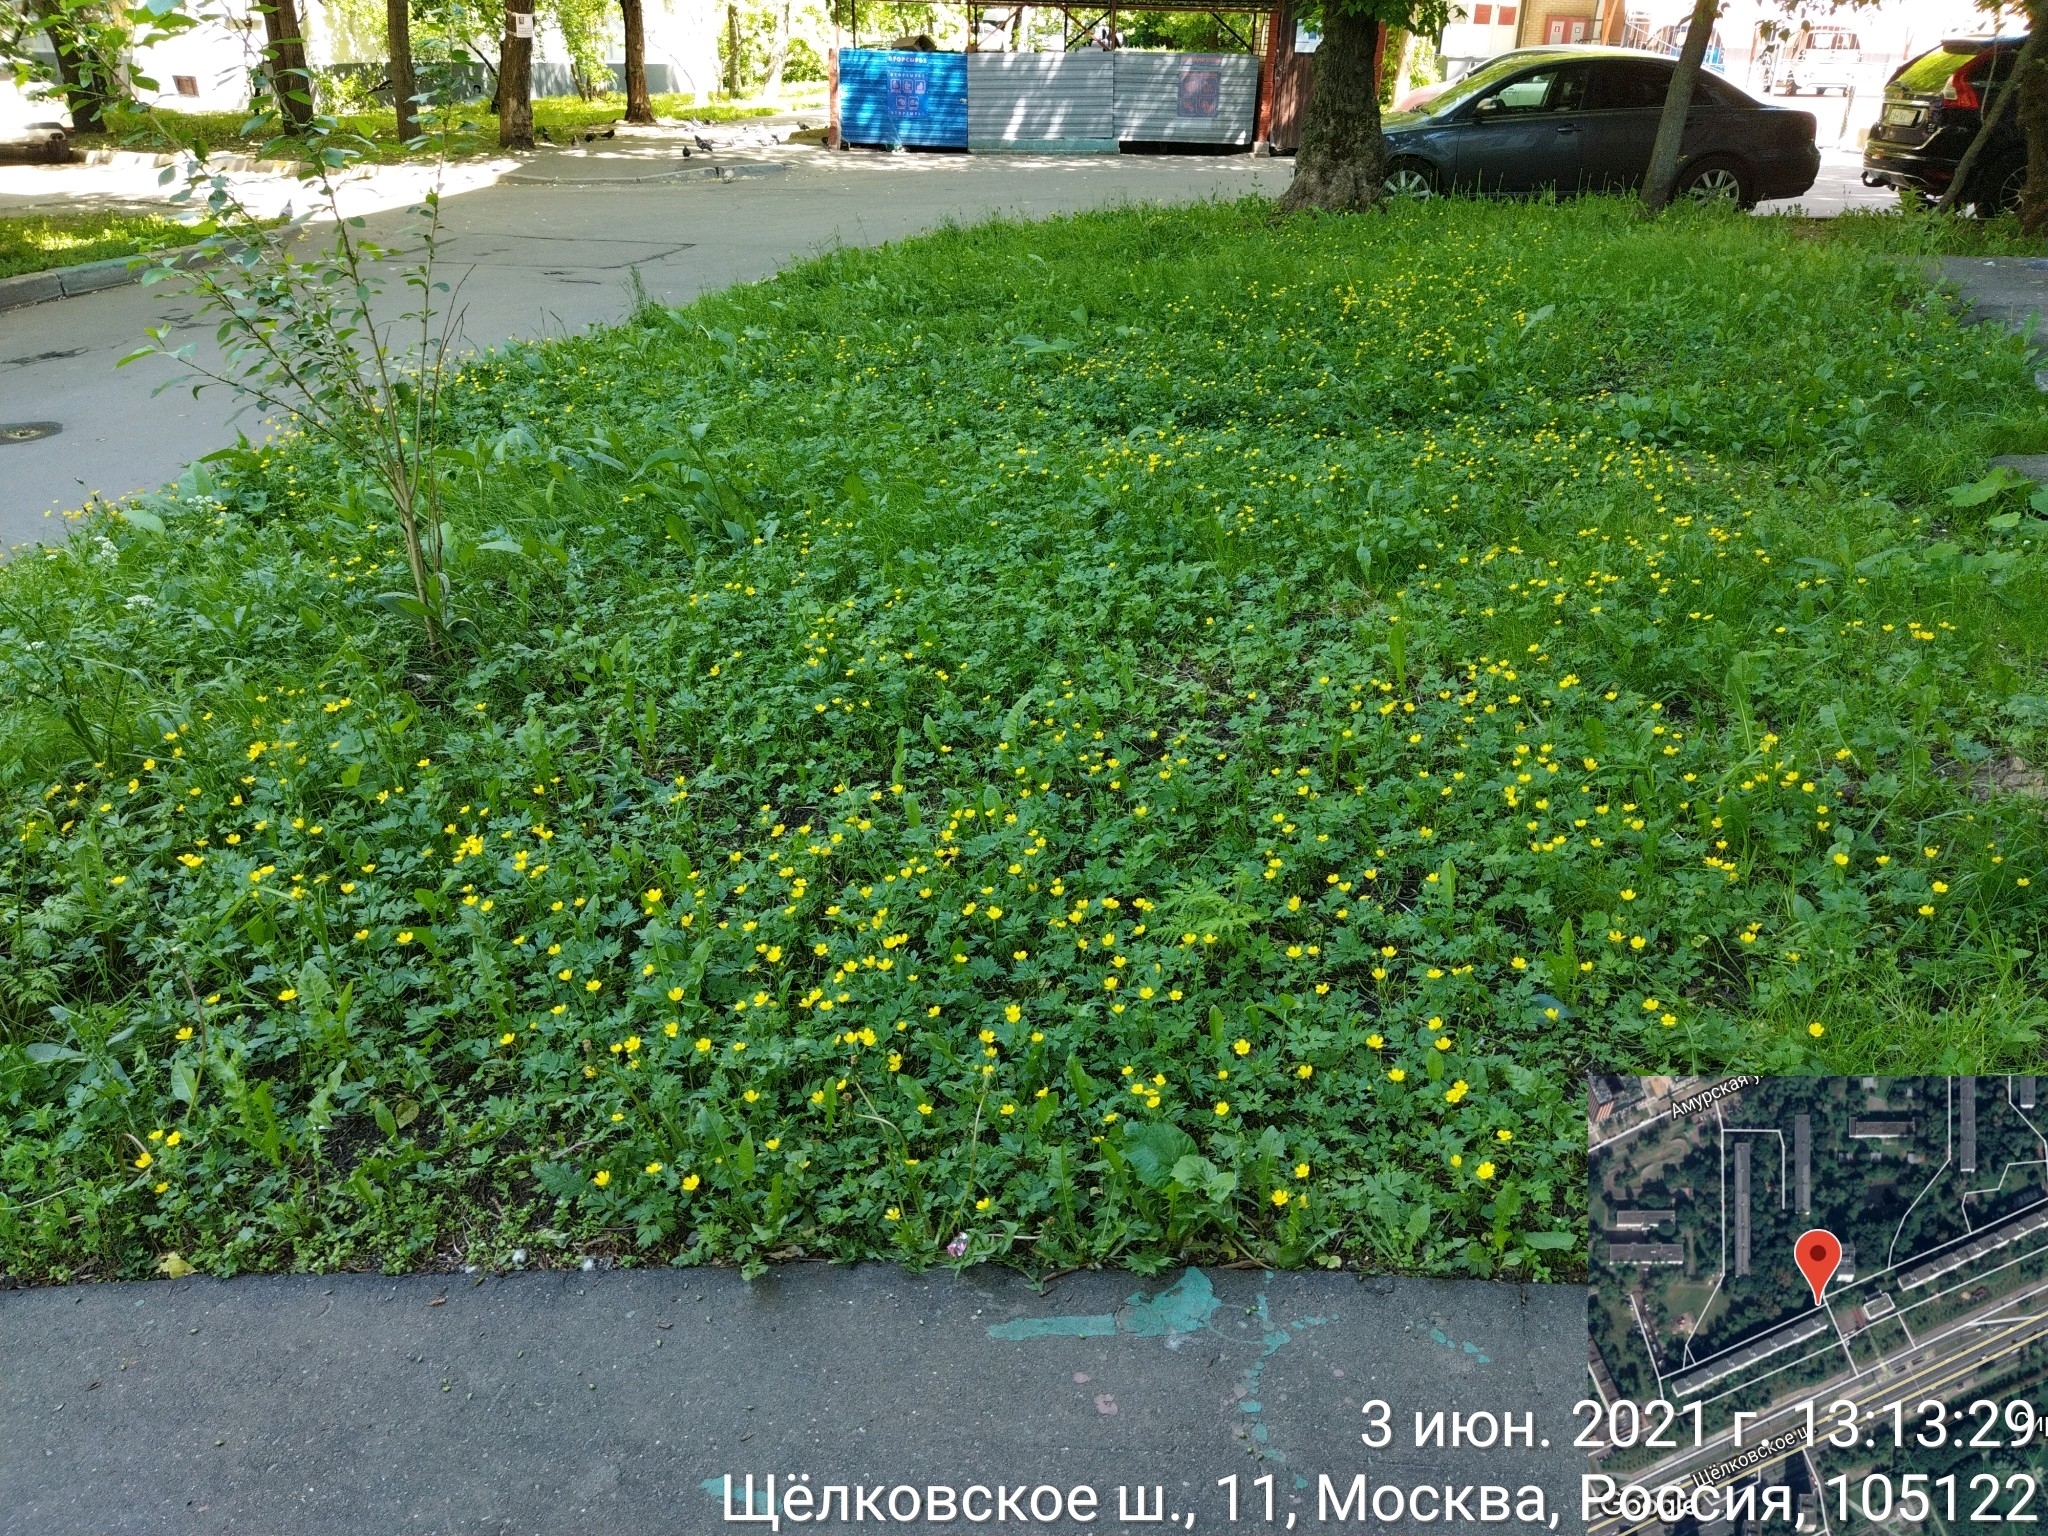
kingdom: Plantae
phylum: Tracheophyta
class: Magnoliopsida
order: Ranunculales
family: Ranunculaceae
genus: Ranunculus
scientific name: Ranunculus repens
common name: Creeping buttercup
